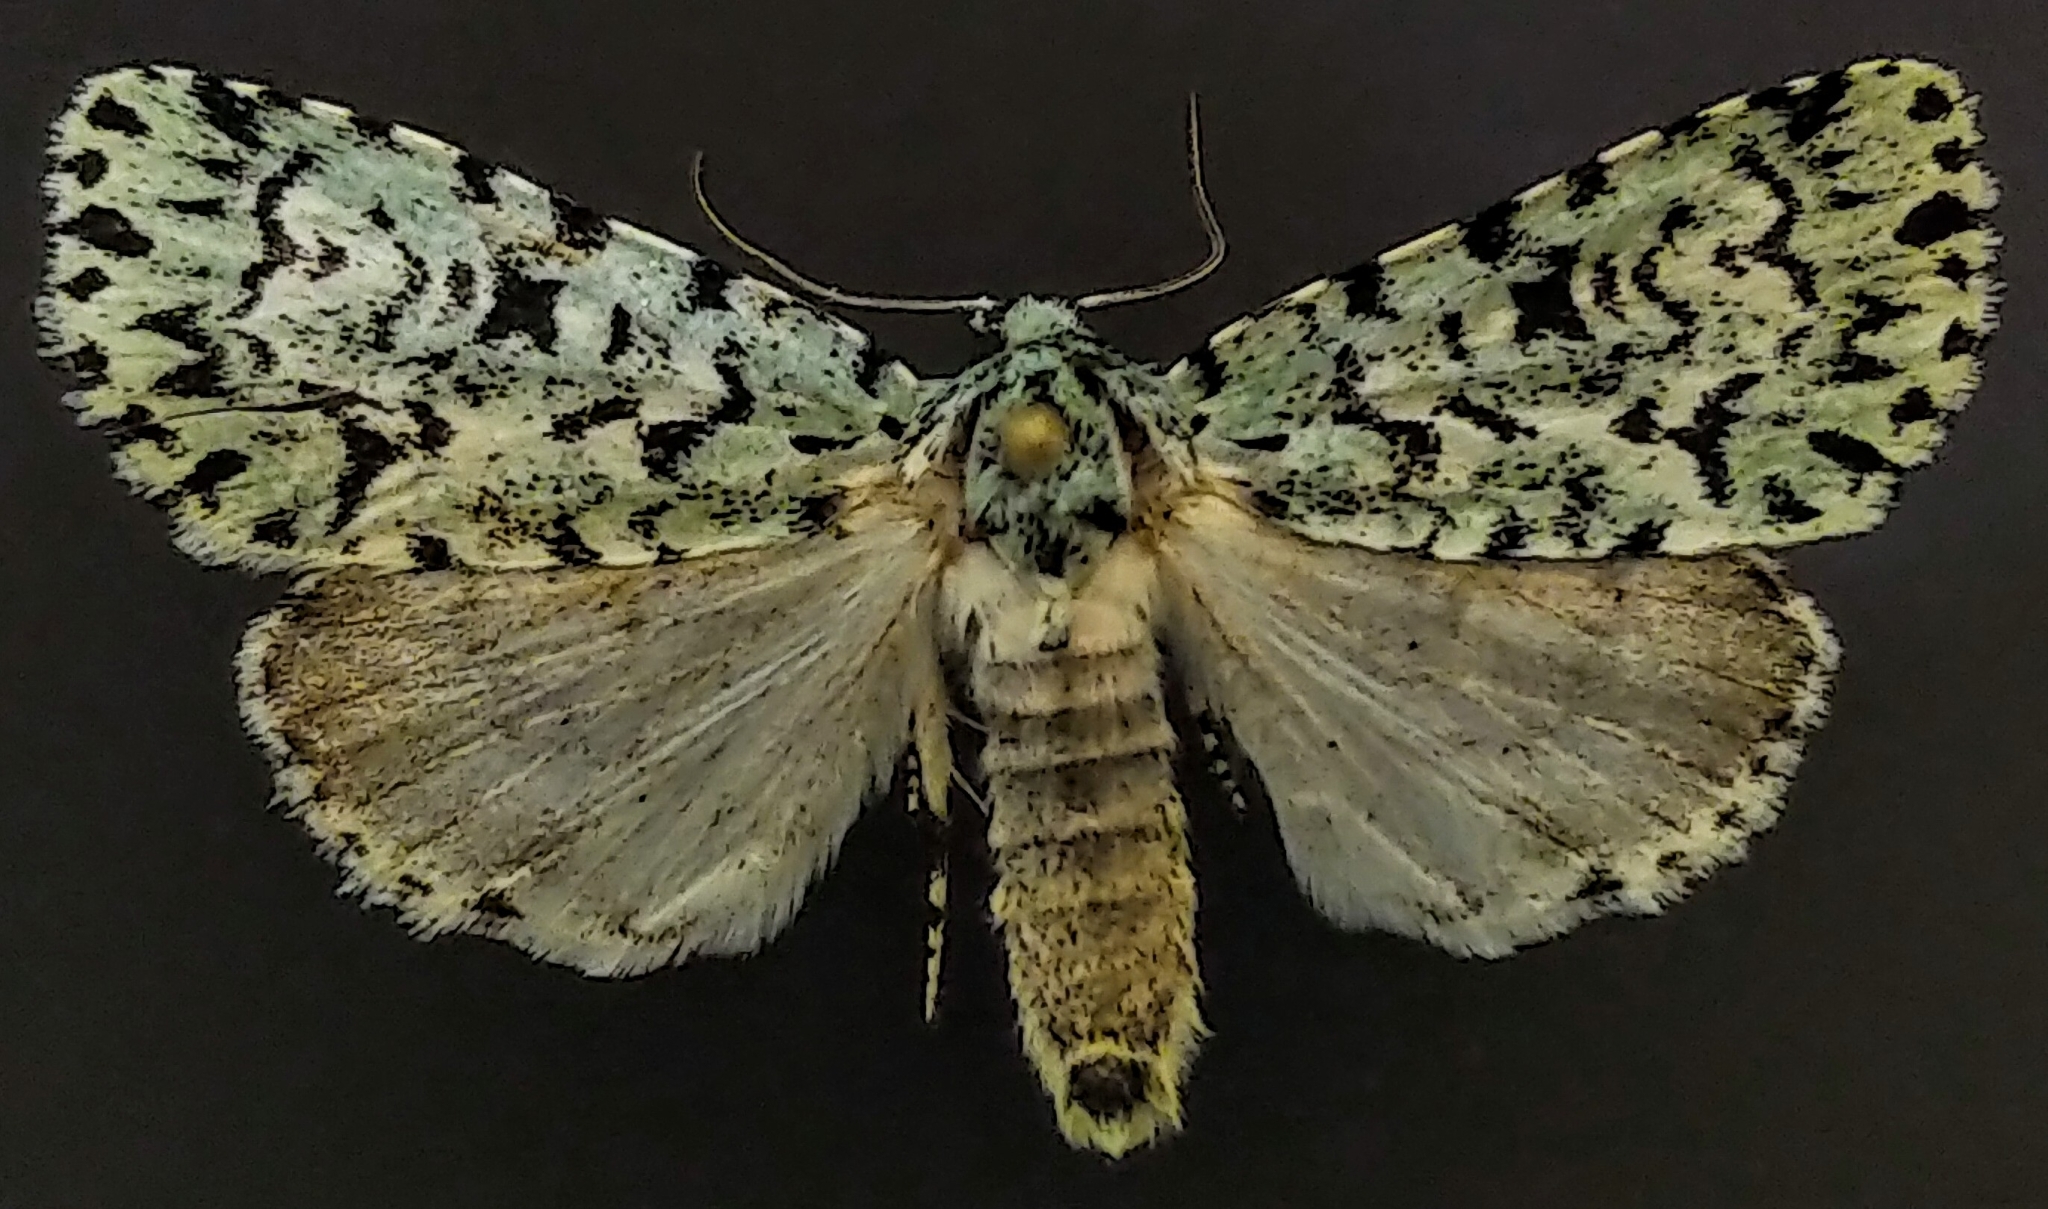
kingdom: Animalia
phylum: Arthropoda
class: Insecta
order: Lepidoptera
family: Noctuidae
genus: Acronicta
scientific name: Acronicta fallax
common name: Green marvel
